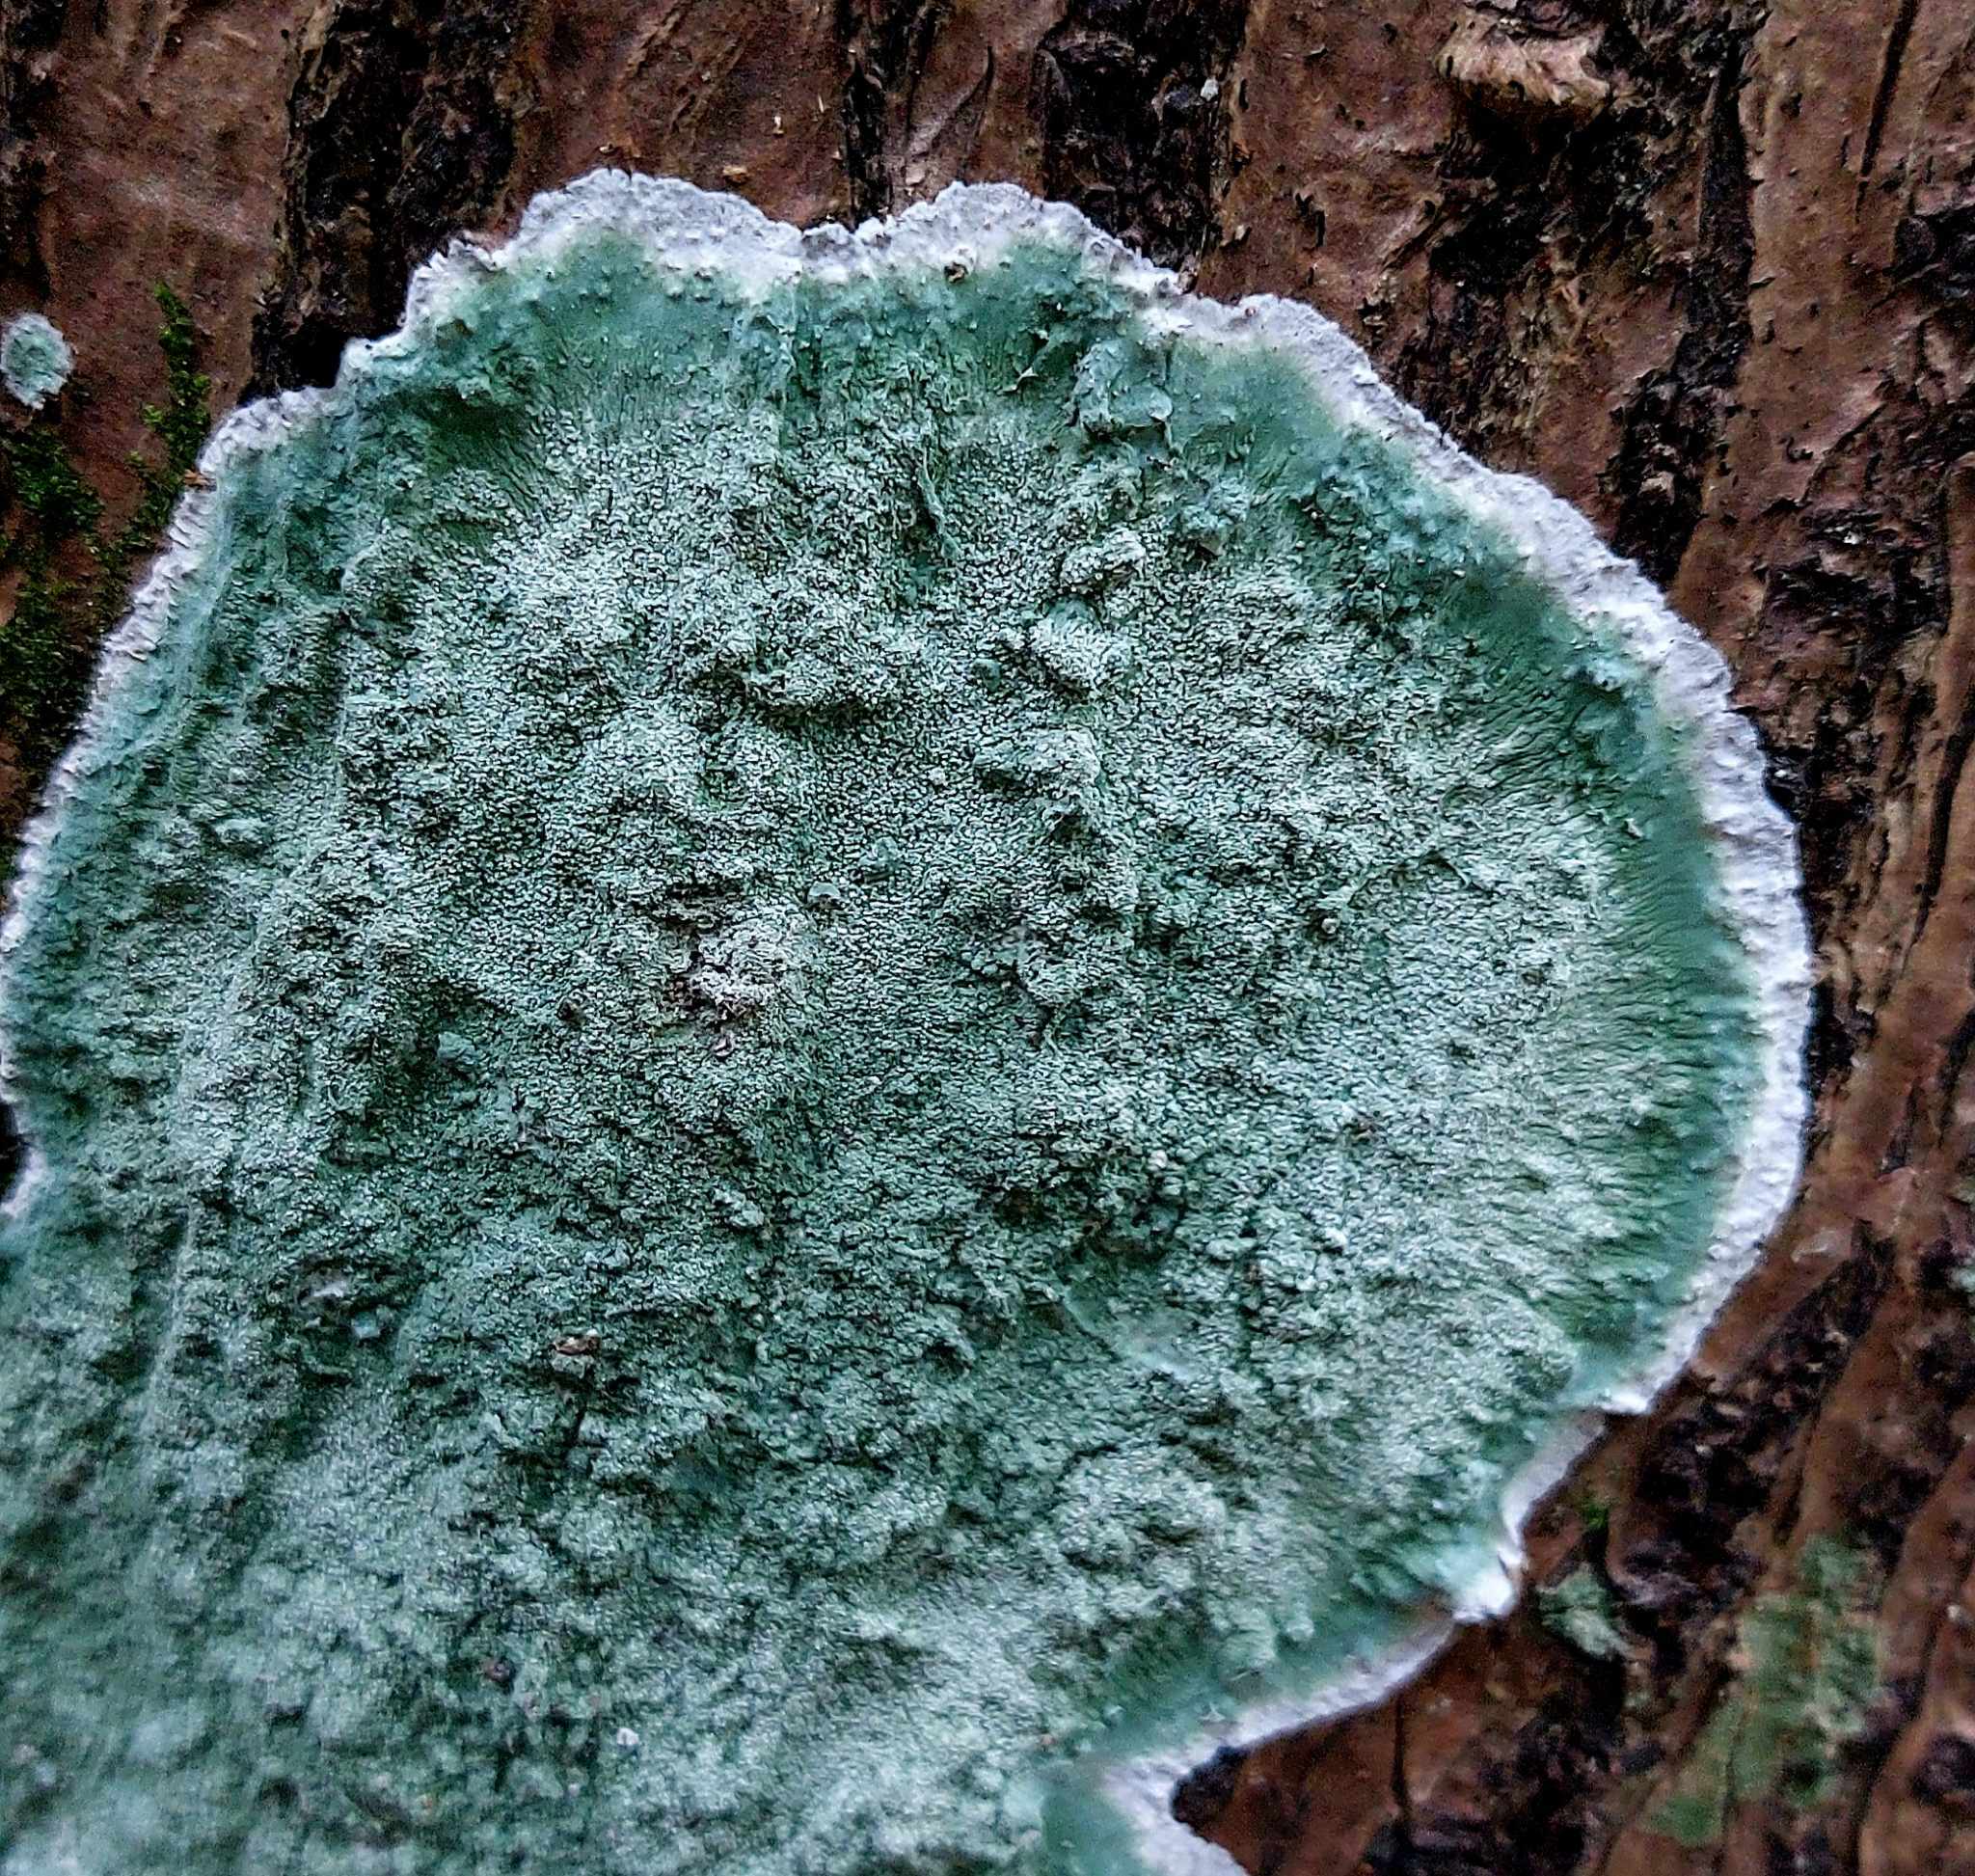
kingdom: Fungi
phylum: Ascomycota
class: Arthoniomycetes
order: Arthoniales
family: Arthoniaceae
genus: Cryptothecia
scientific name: Cryptothecia
